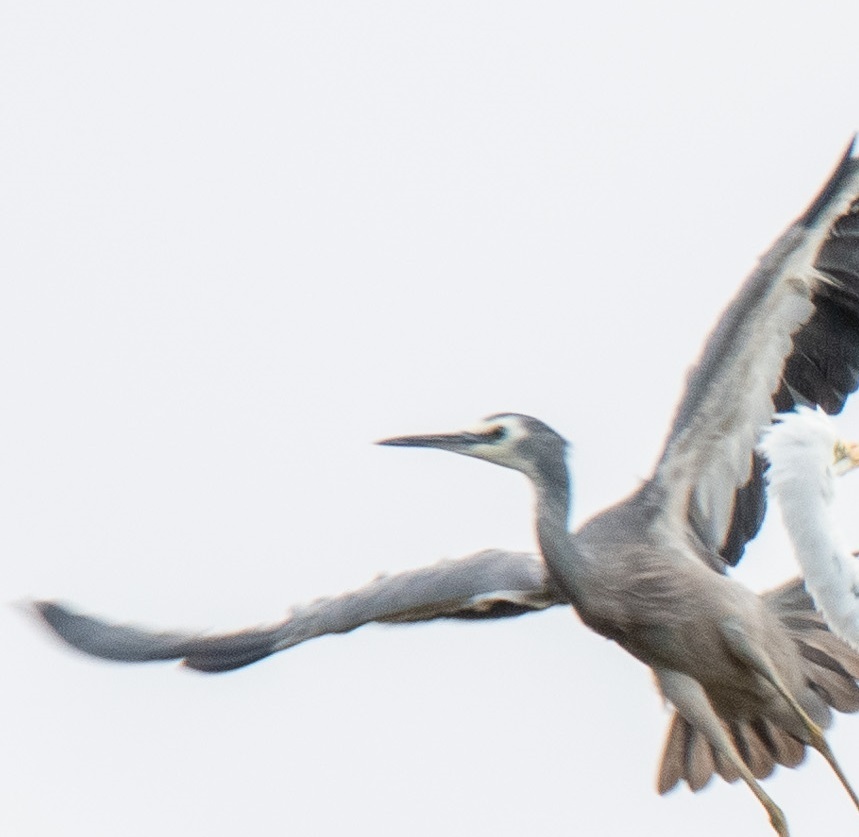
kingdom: Animalia
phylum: Chordata
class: Aves
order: Pelecaniformes
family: Ardeidae
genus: Egretta
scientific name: Egretta novaehollandiae
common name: White-faced heron
